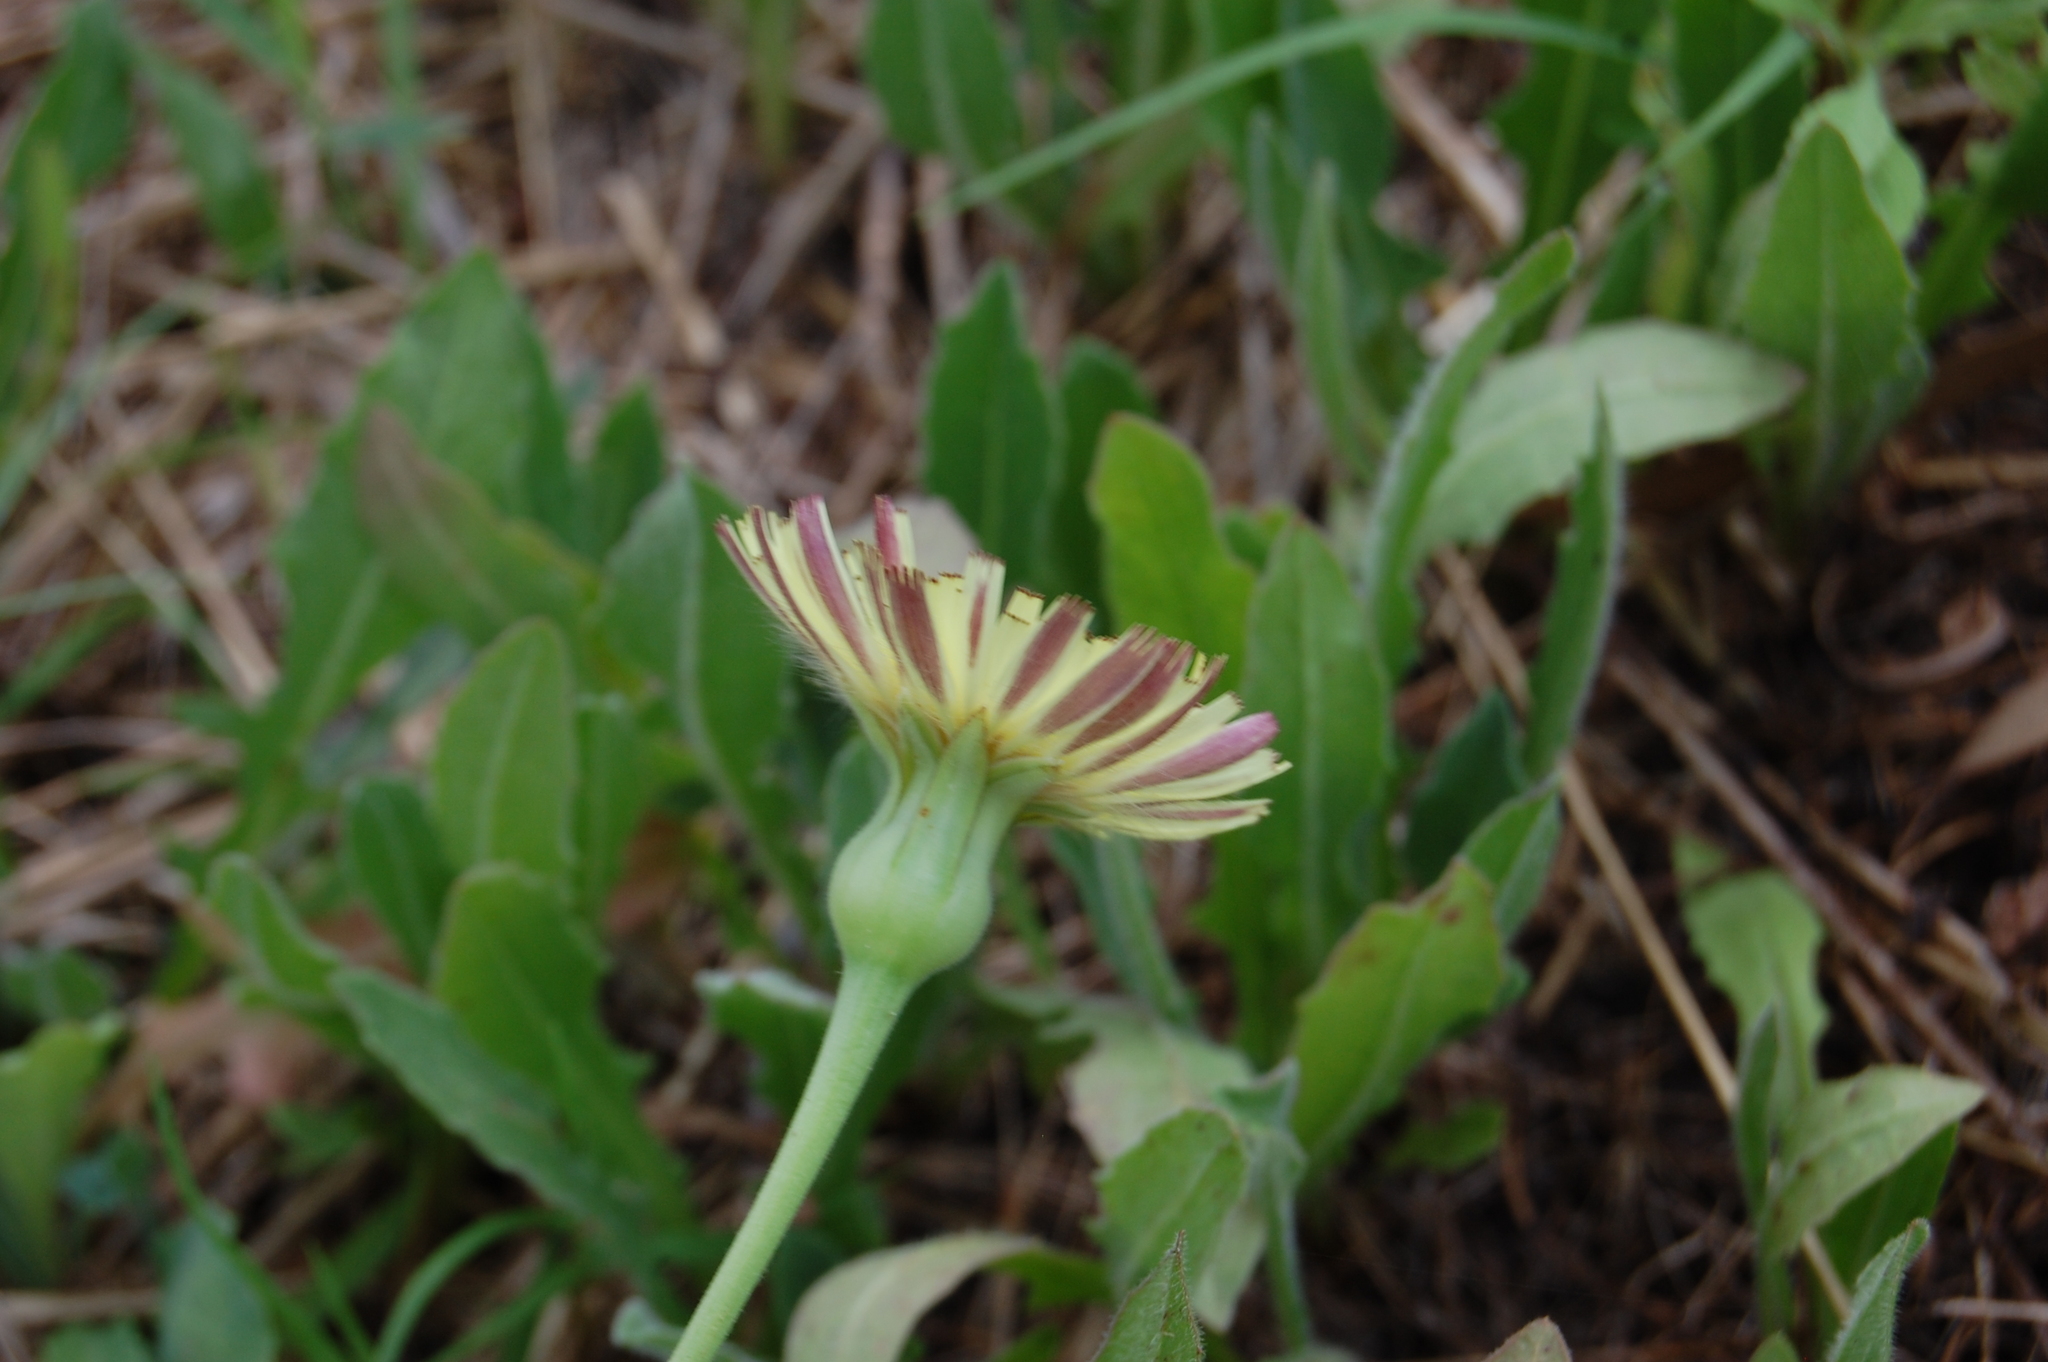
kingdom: Plantae
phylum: Tracheophyta
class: Magnoliopsida
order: Asterales
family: Asteraceae
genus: Urospermum
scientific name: Urospermum dalechampii
